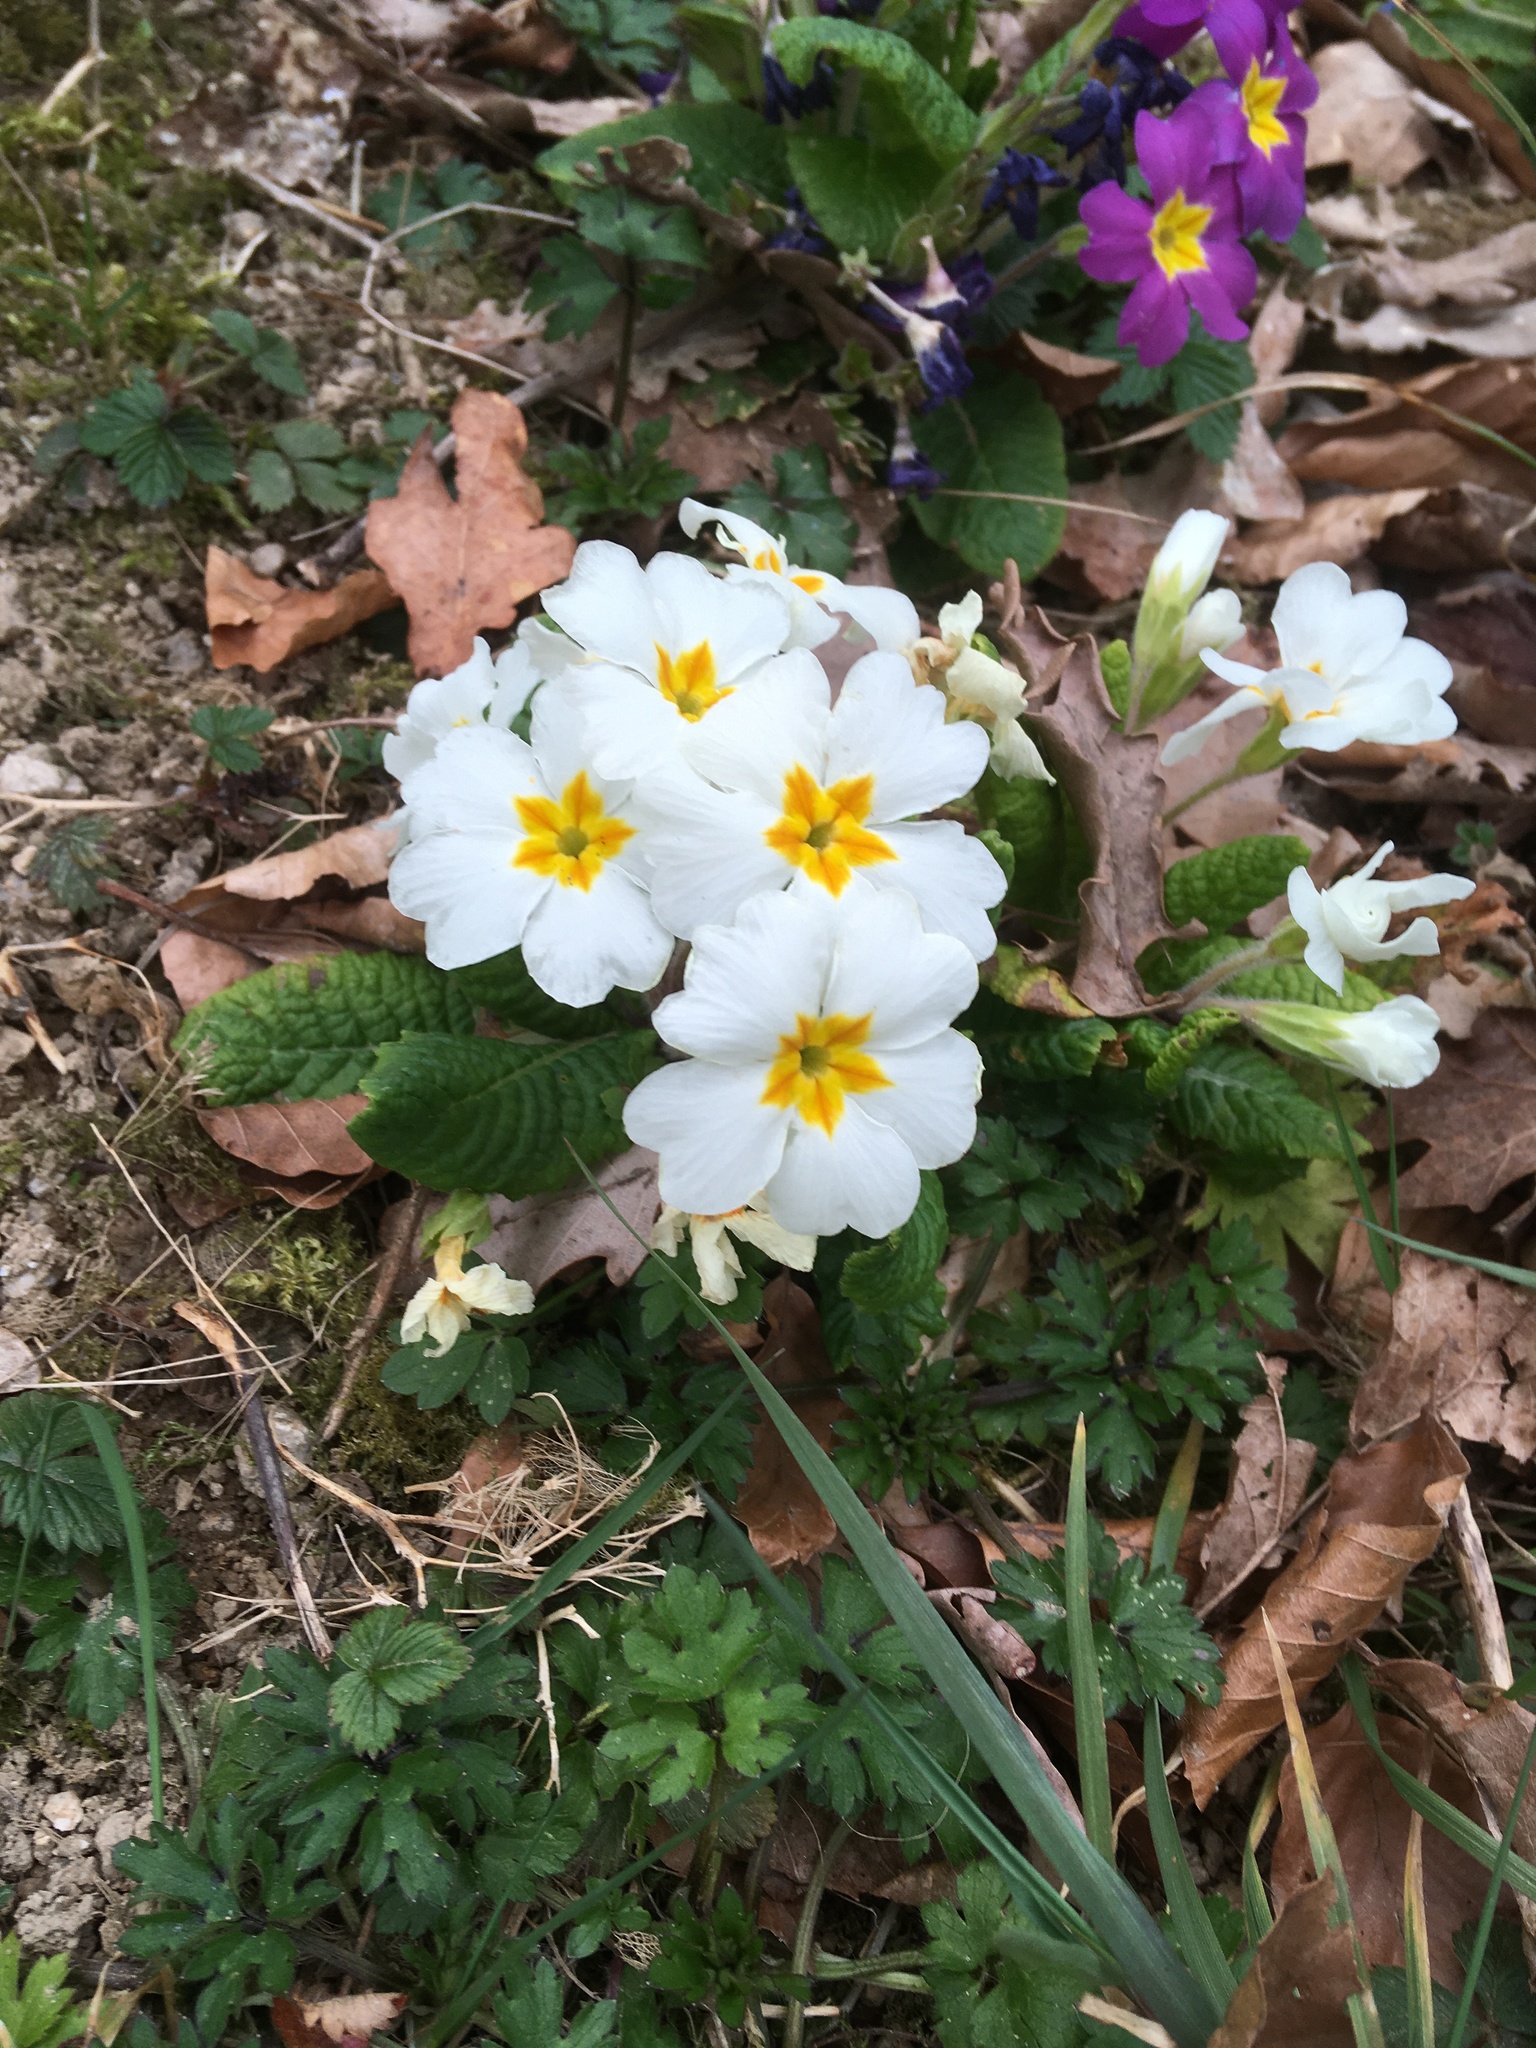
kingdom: Plantae
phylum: Tracheophyta
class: Magnoliopsida
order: Ericales
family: Primulaceae
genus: Primula
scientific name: Primula vulgaris
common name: Primrose
